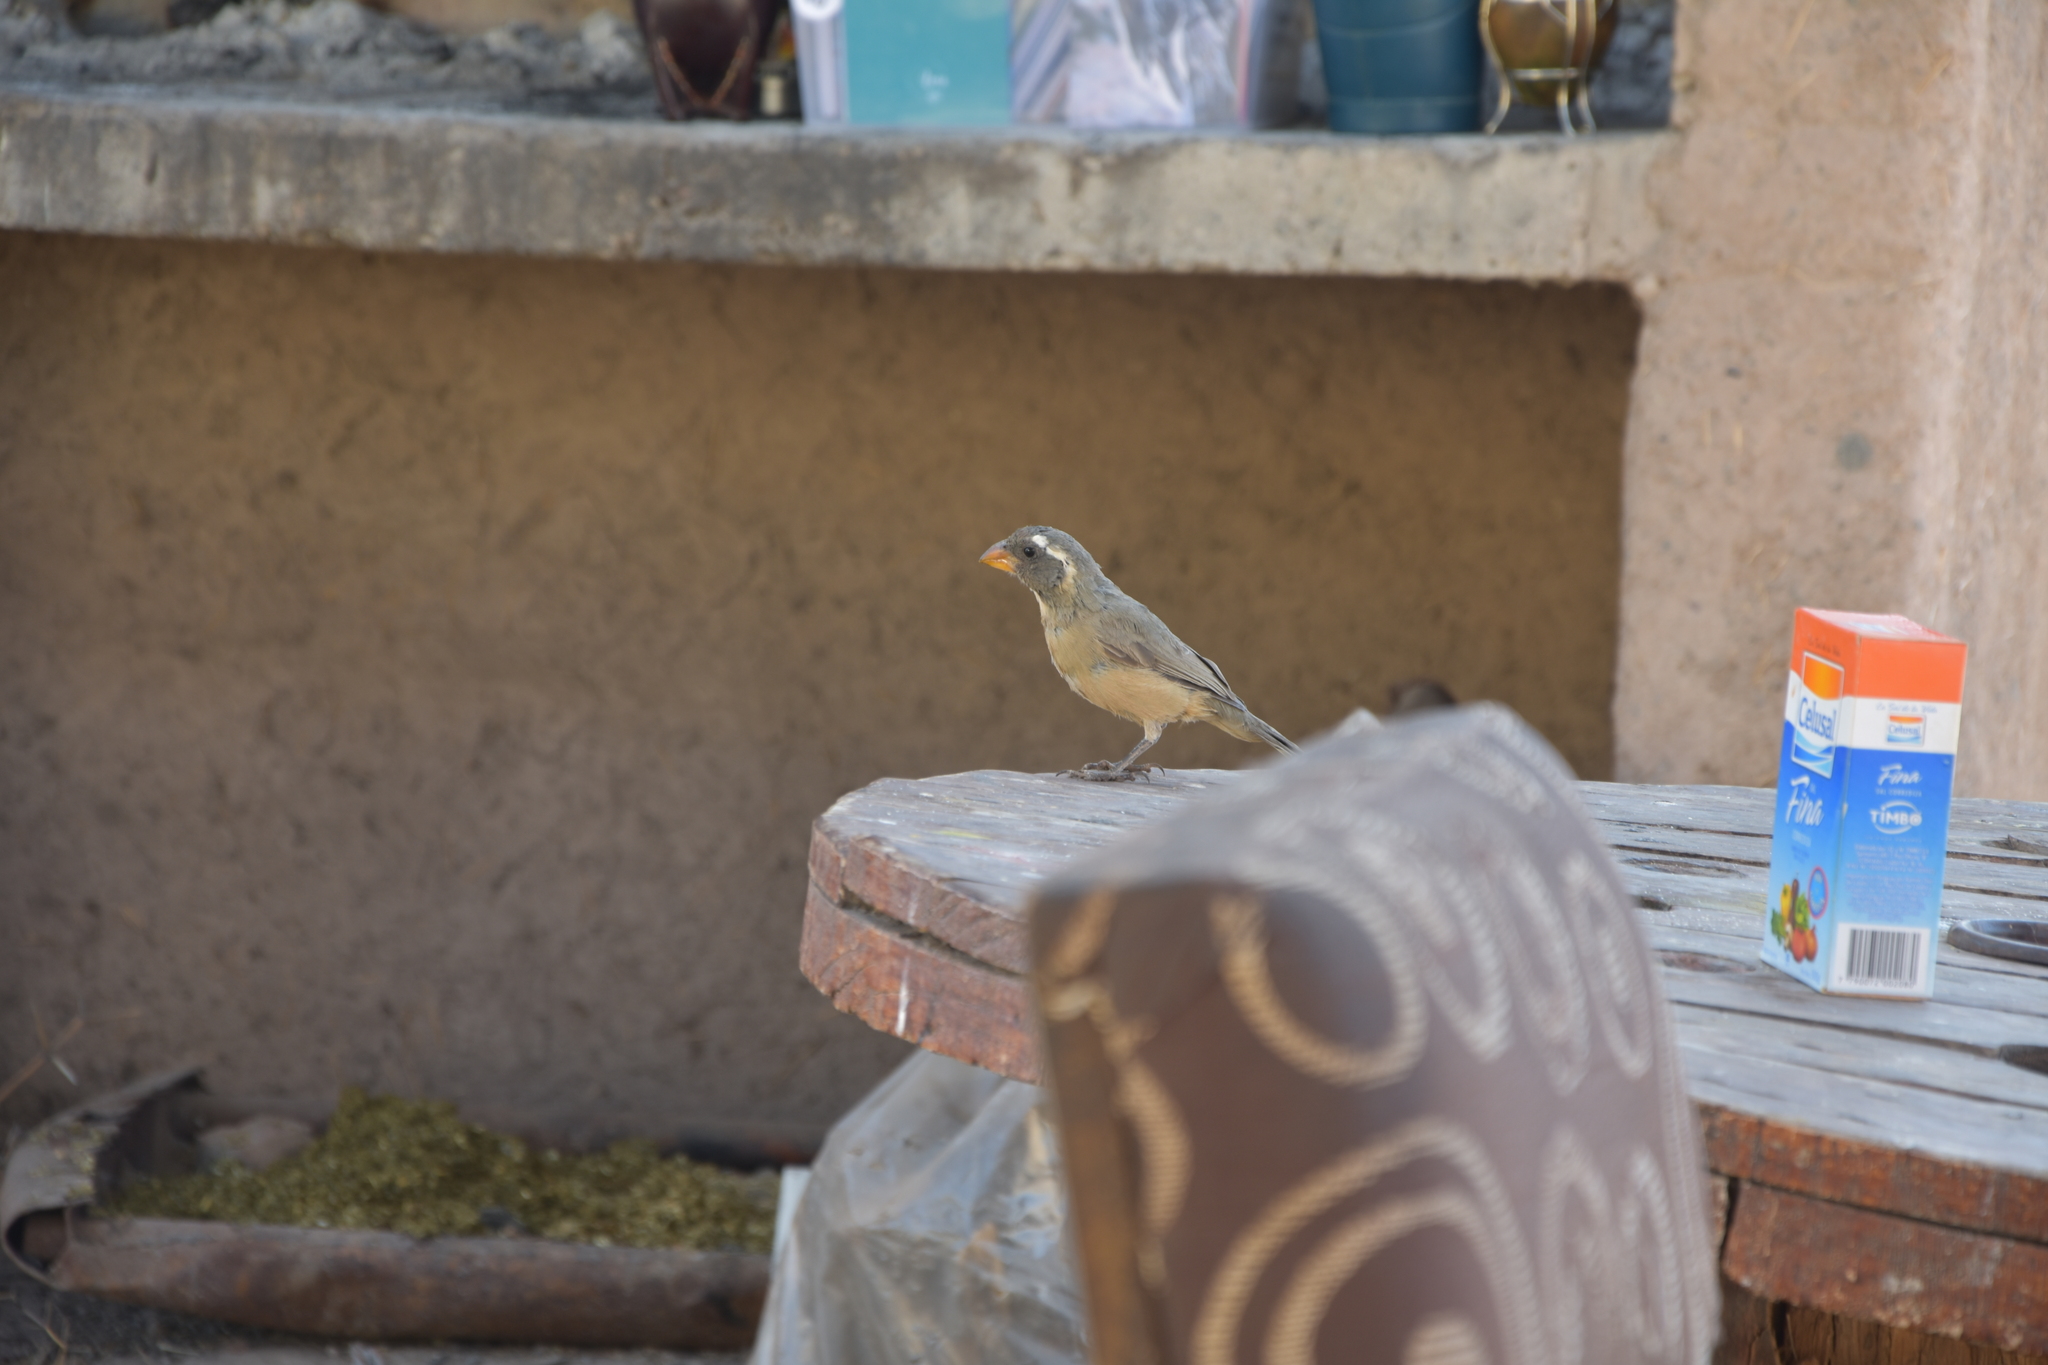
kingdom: Animalia
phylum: Chordata
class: Aves
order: Passeriformes
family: Thraupidae
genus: Saltator
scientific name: Saltator aurantiirostris
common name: Golden-billed saltator
